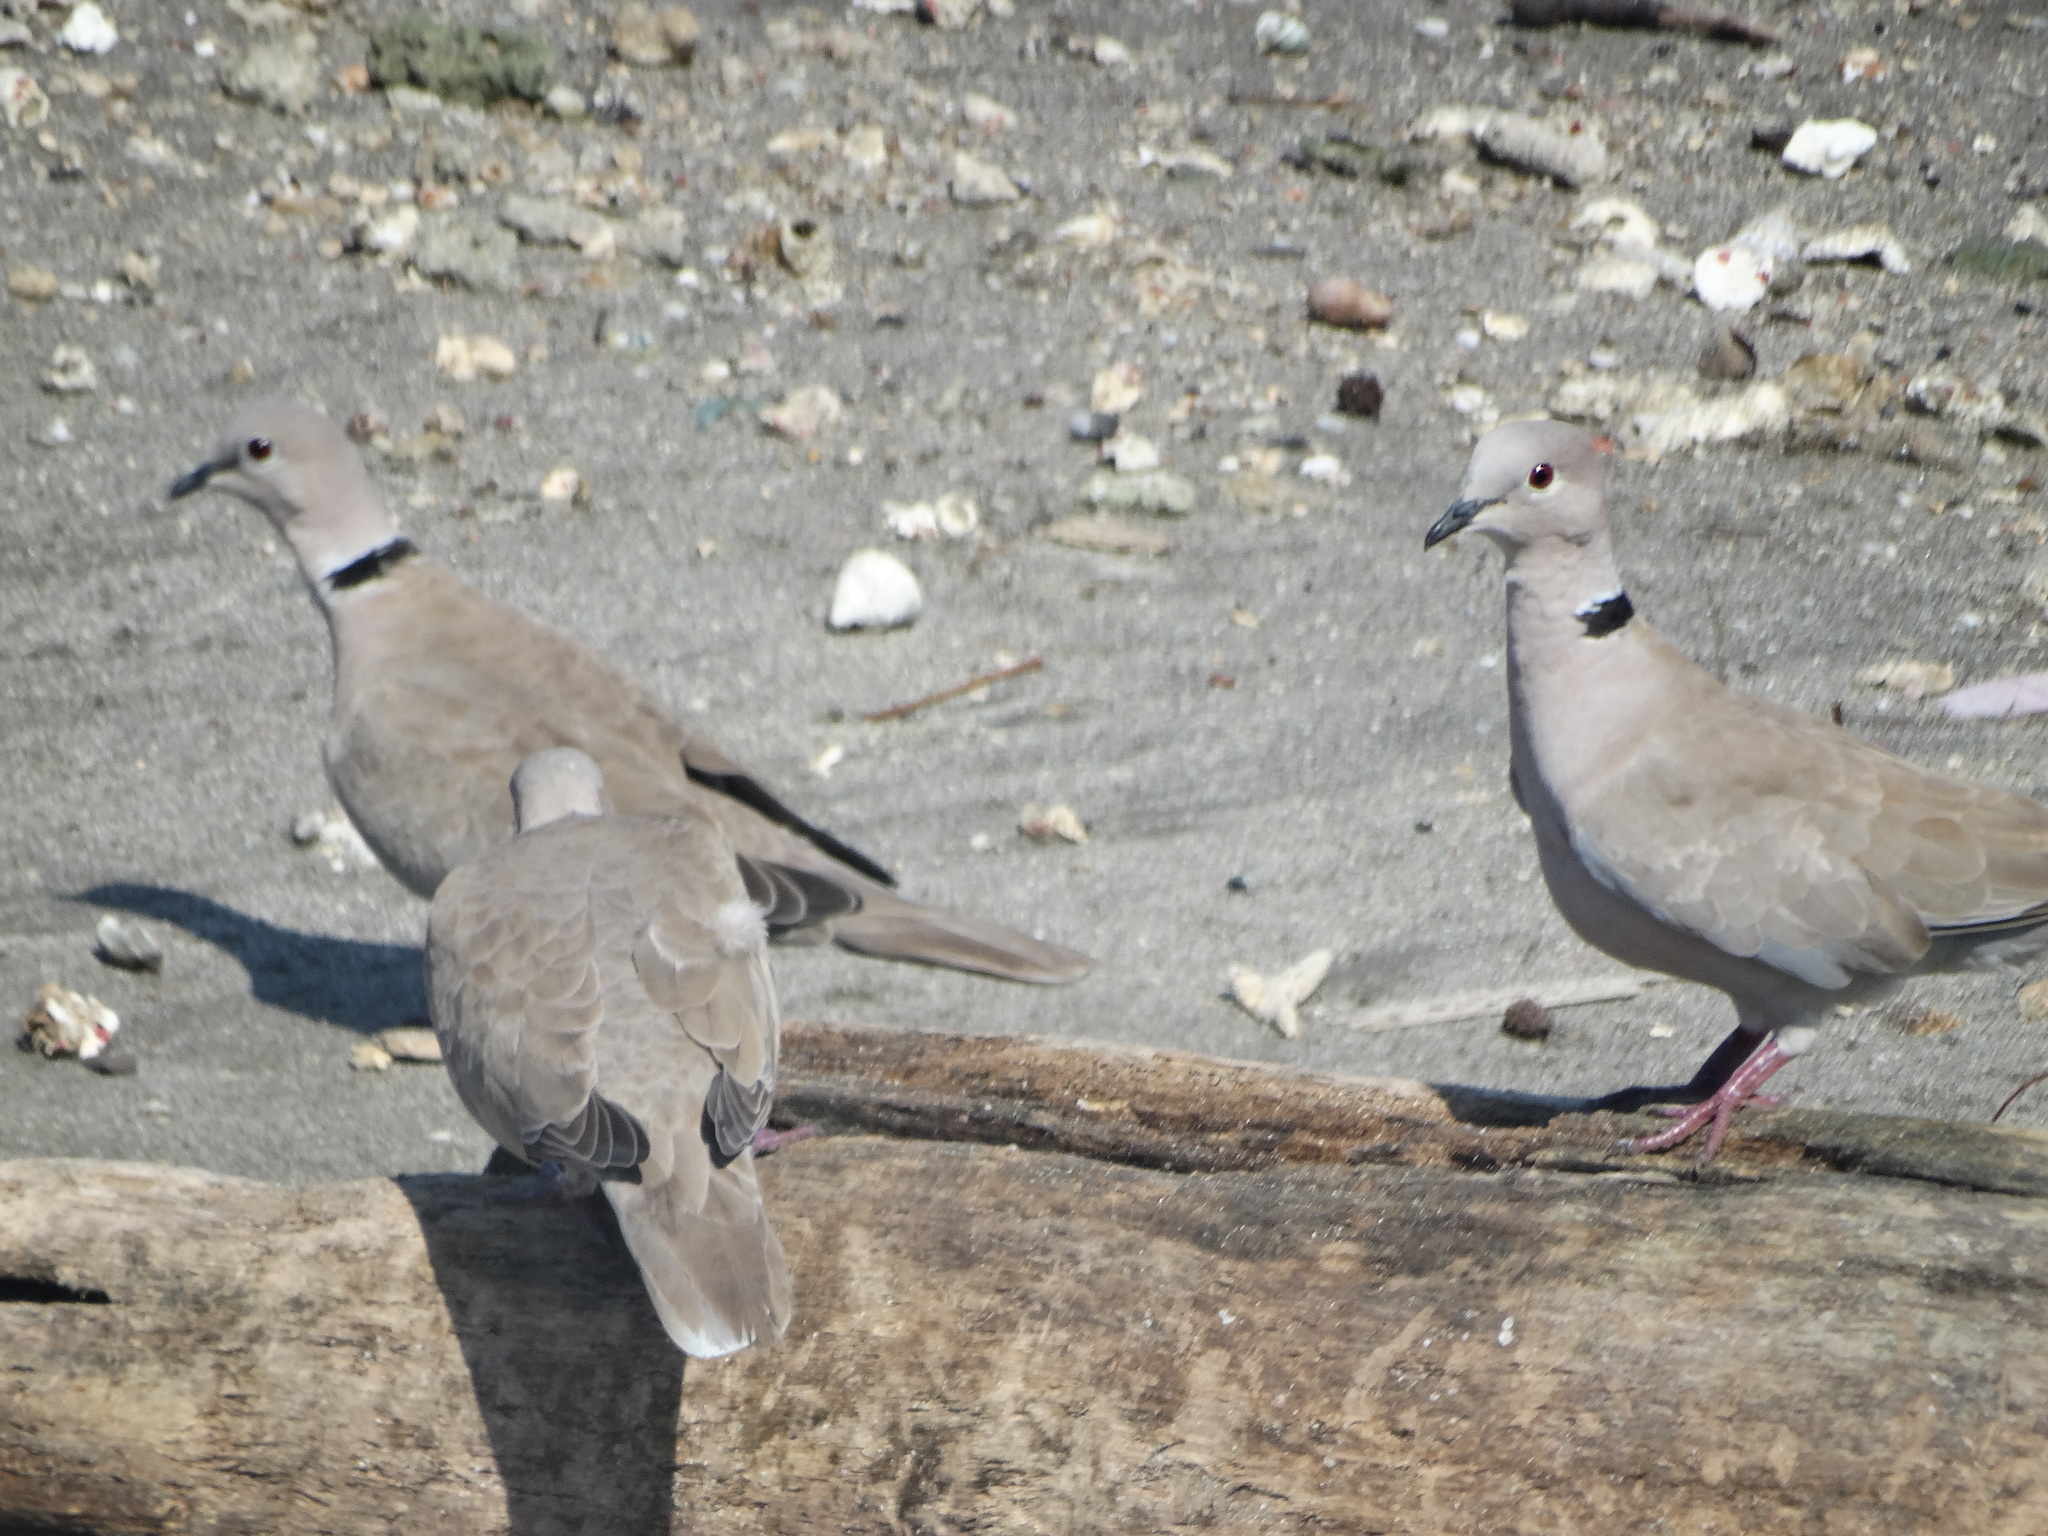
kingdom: Animalia
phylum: Chordata
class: Aves
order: Columbiformes
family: Columbidae
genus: Streptopelia
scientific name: Streptopelia decaocto
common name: Eurasian collared dove
